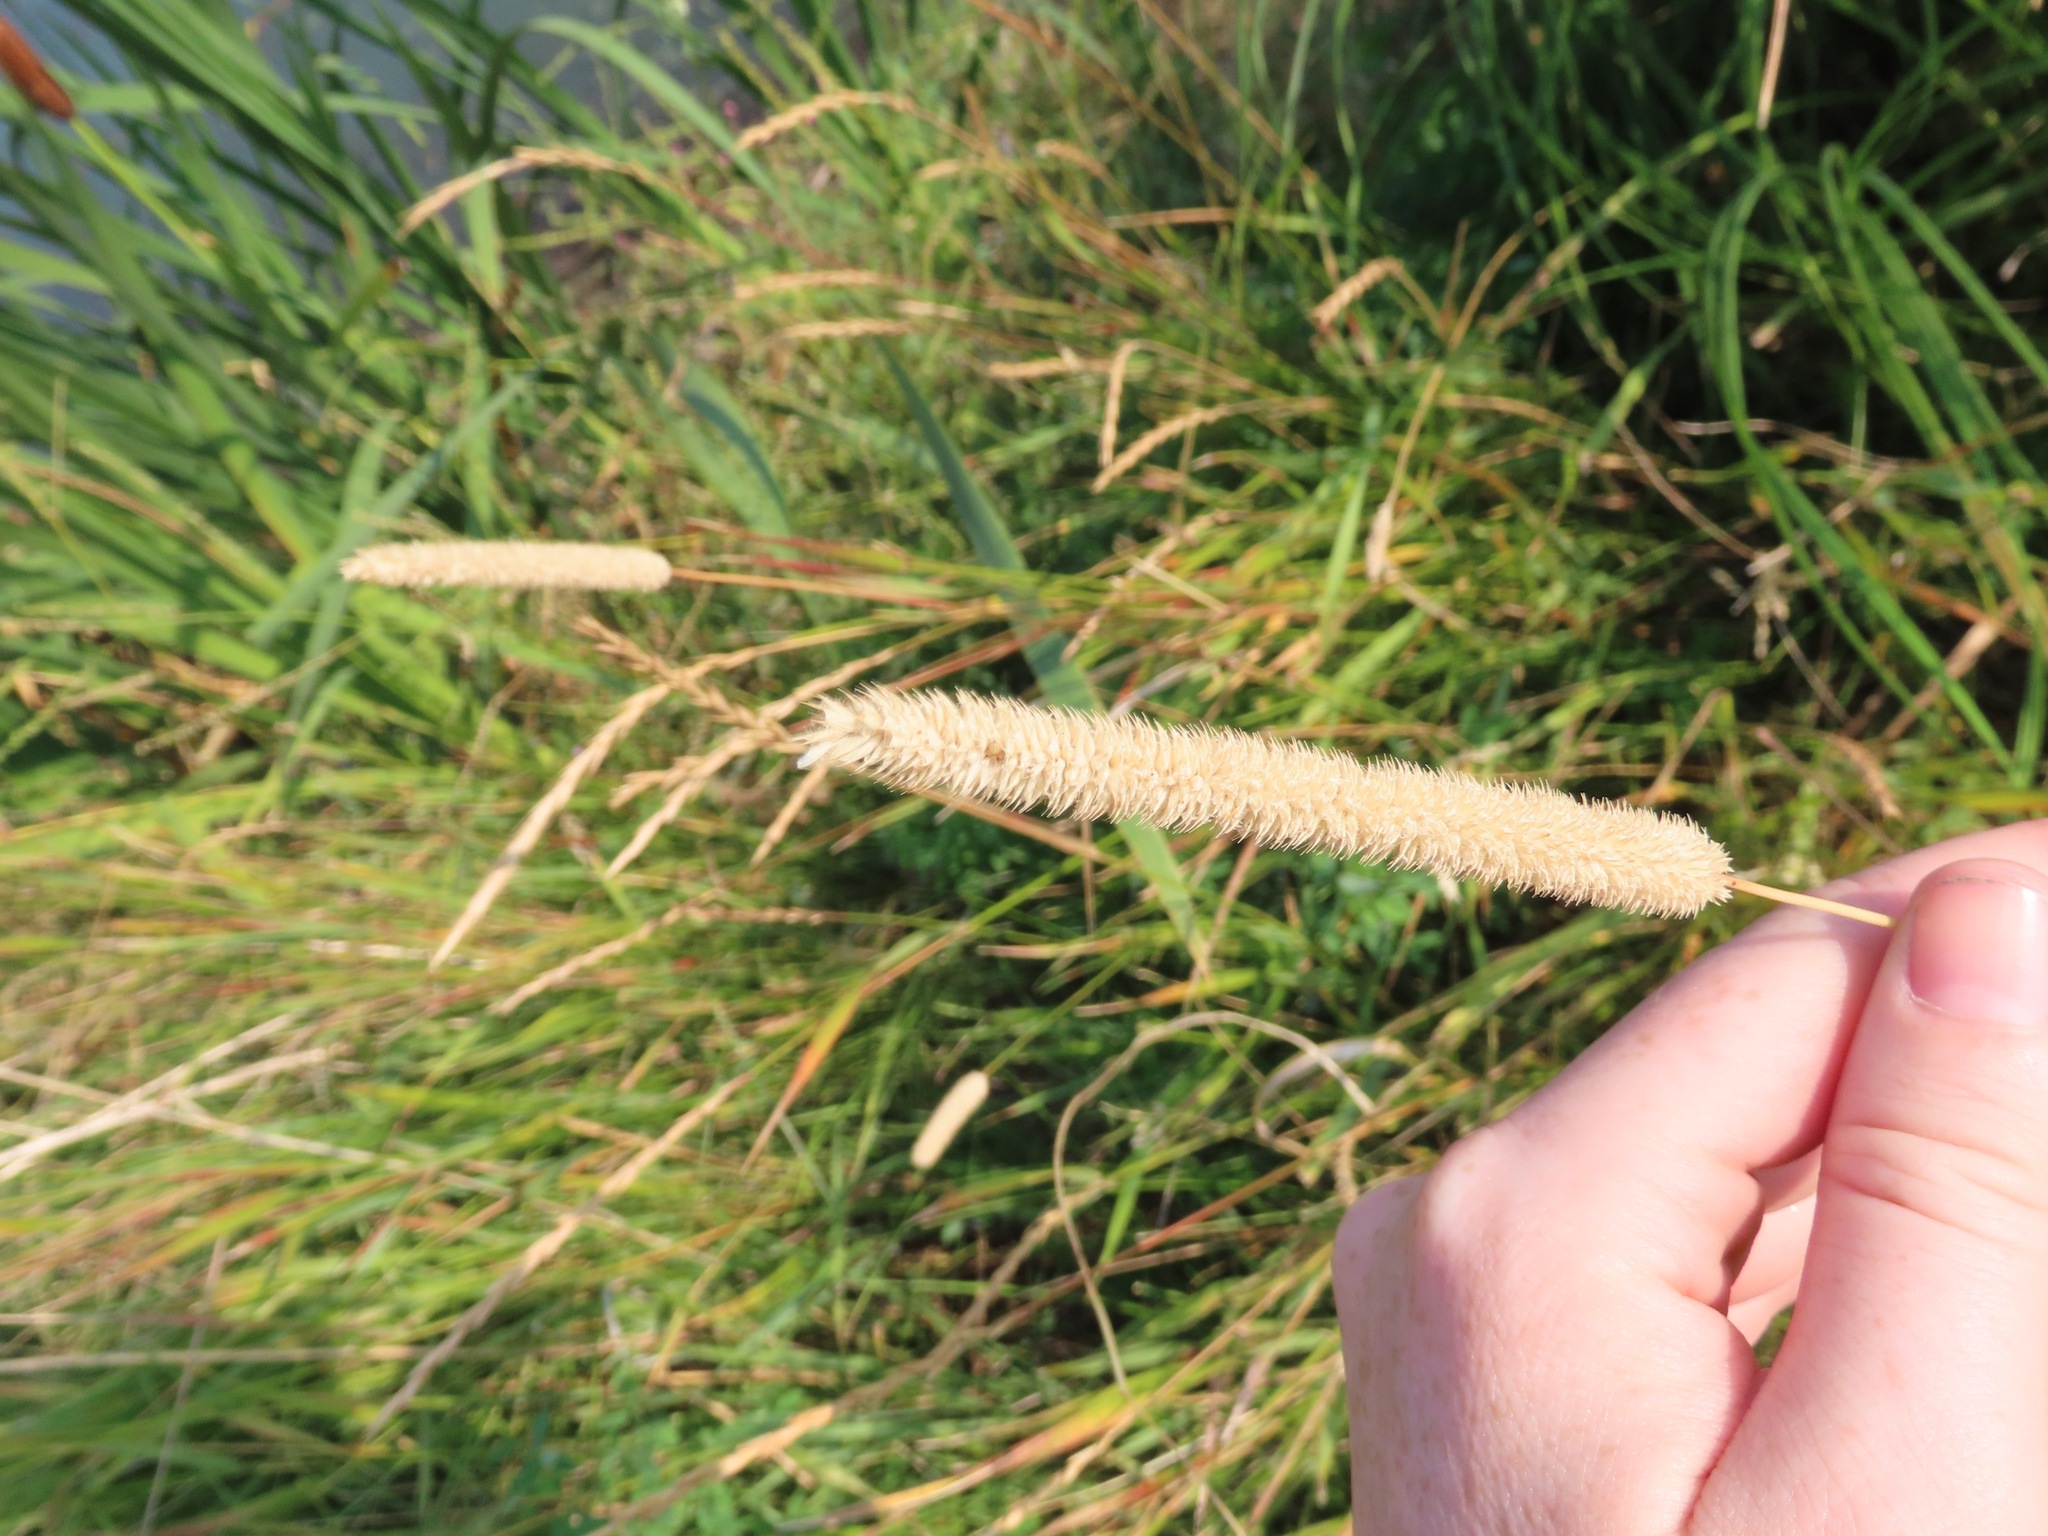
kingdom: Plantae
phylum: Tracheophyta
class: Liliopsida
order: Poales
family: Poaceae
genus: Phleum
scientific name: Phleum pratense
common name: Timothy grass
